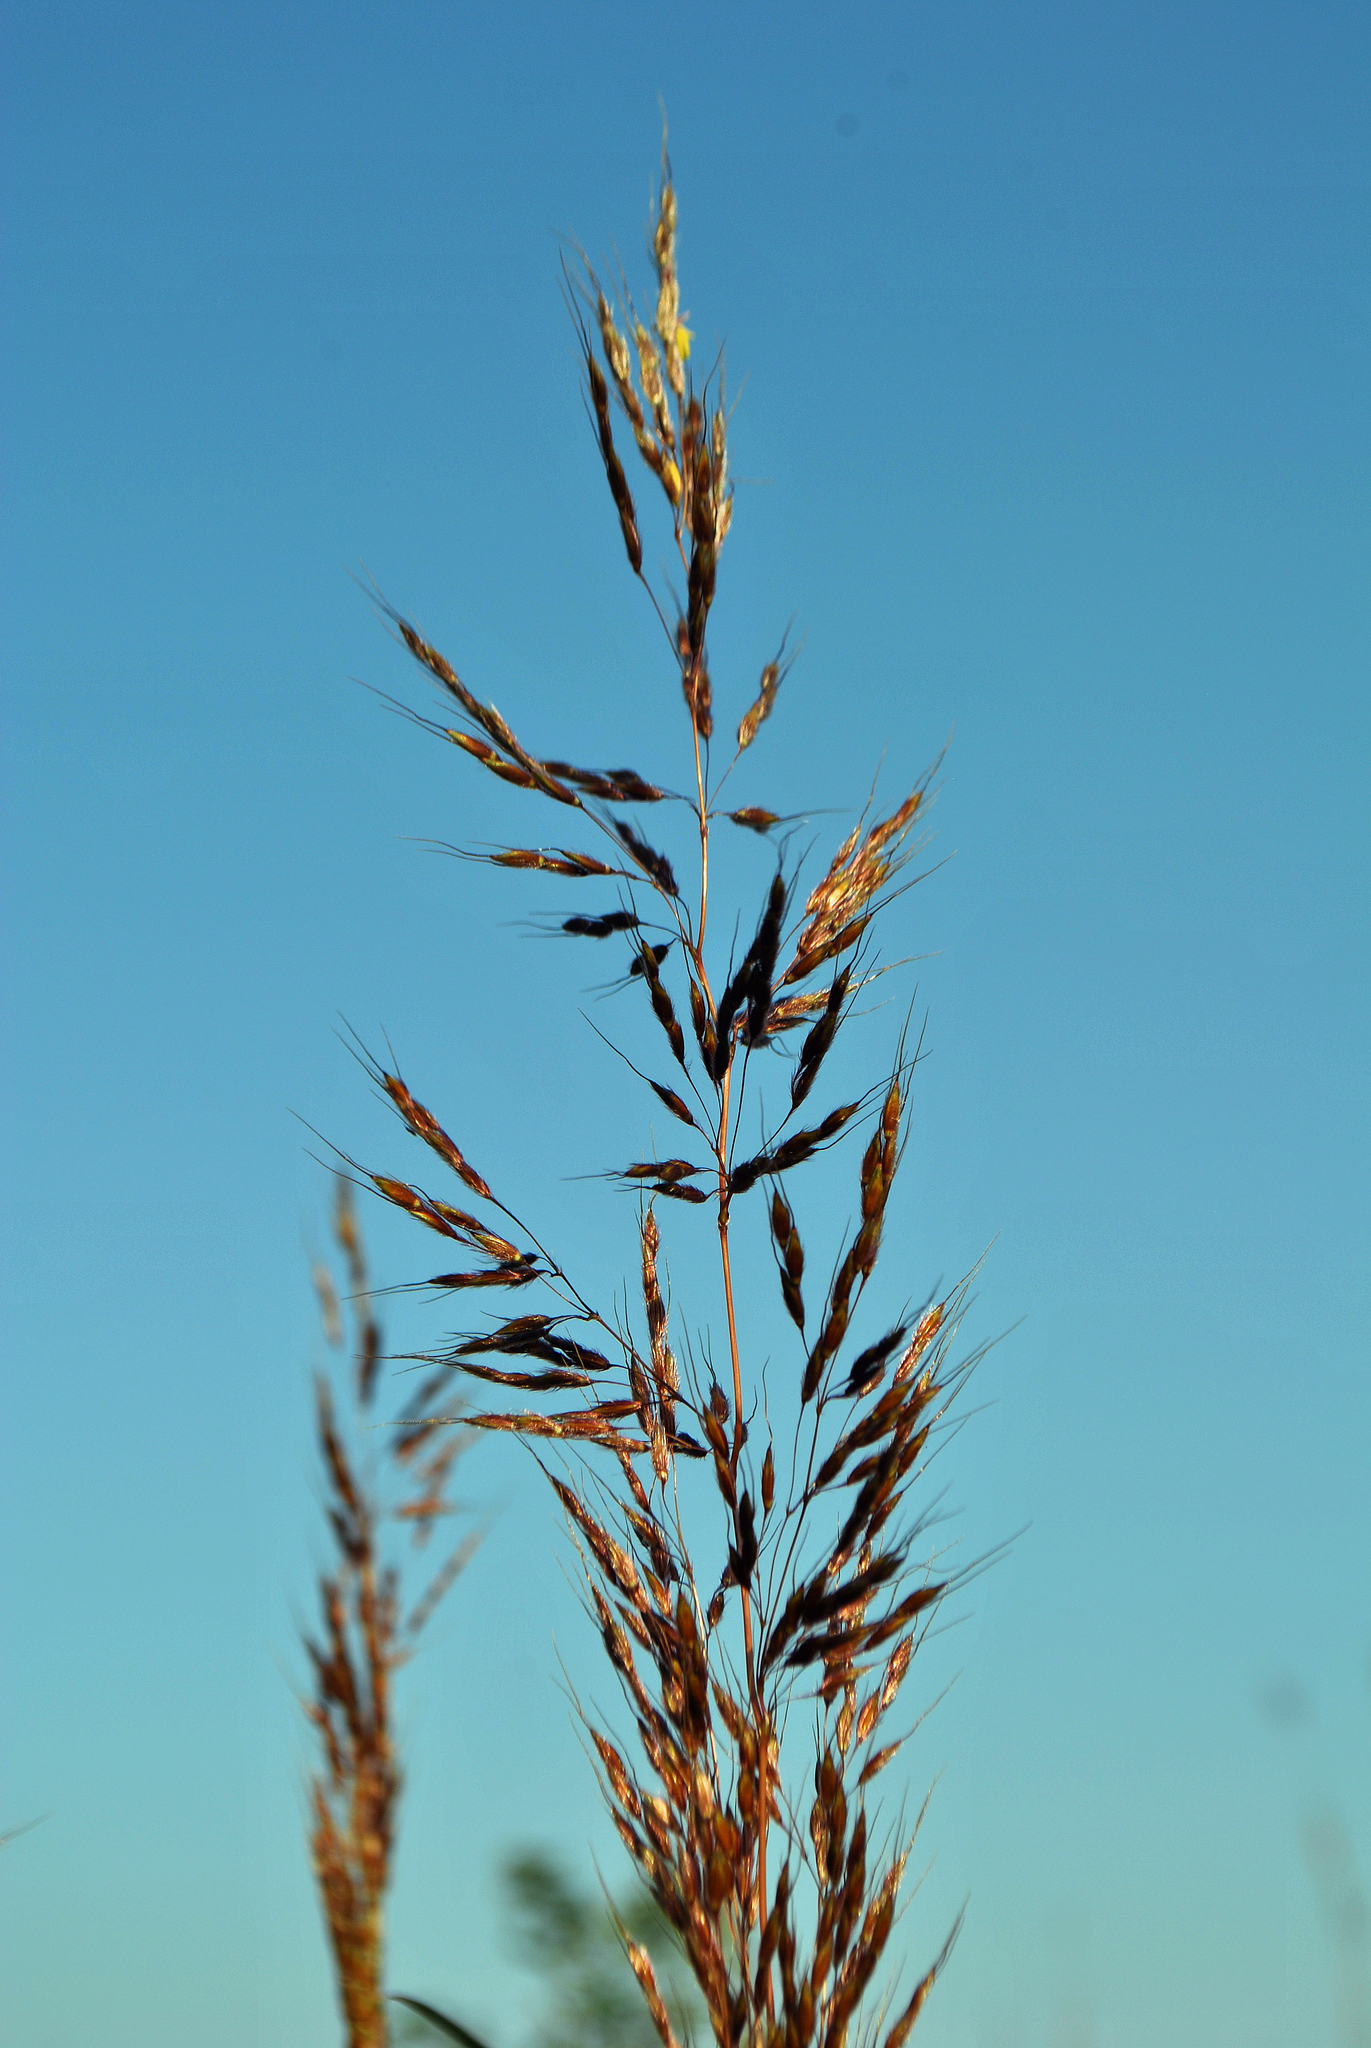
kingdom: Plantae
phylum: Tracheophyta
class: Liliopsida
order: Poales
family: Poaceae
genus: Sorghastrum
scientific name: Sorghastrum nutans
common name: Indian grass
